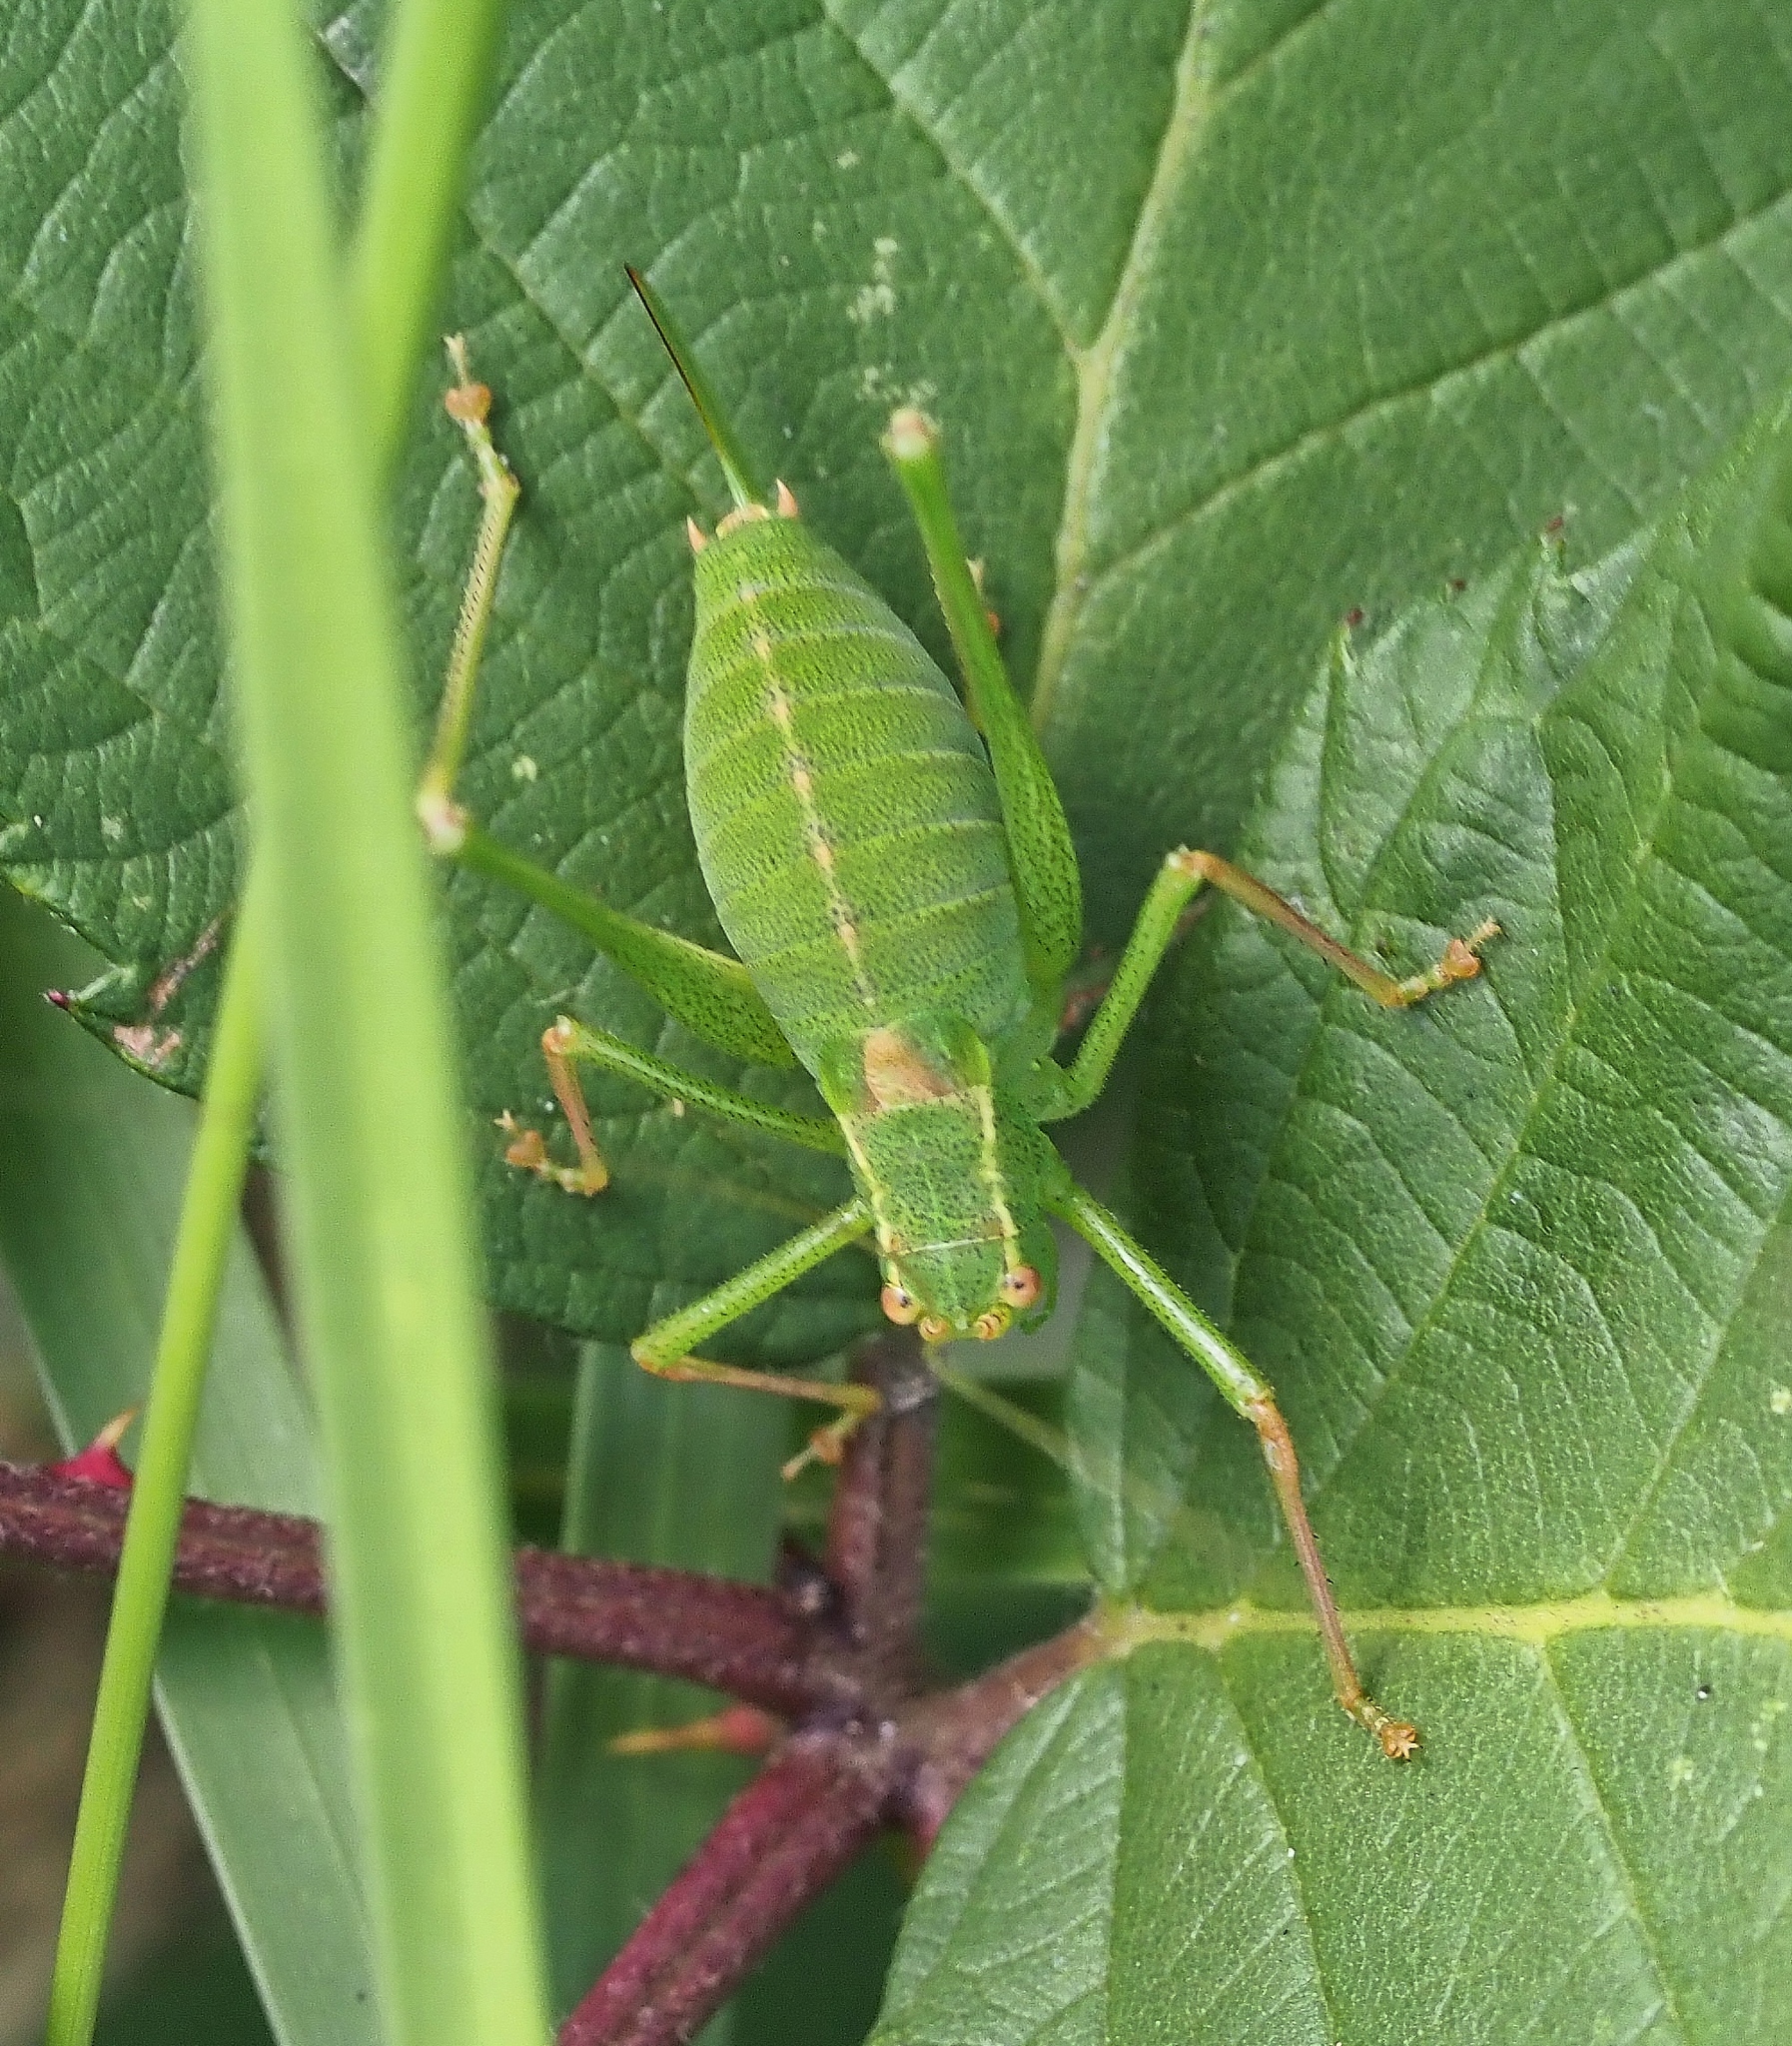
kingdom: Animalia
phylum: Arthropoda
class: Insecta
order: Orthoptera
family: Tettigoniidae
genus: Leptophyes
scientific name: Leptophyes punctatissima
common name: Speckled bush-cricket
